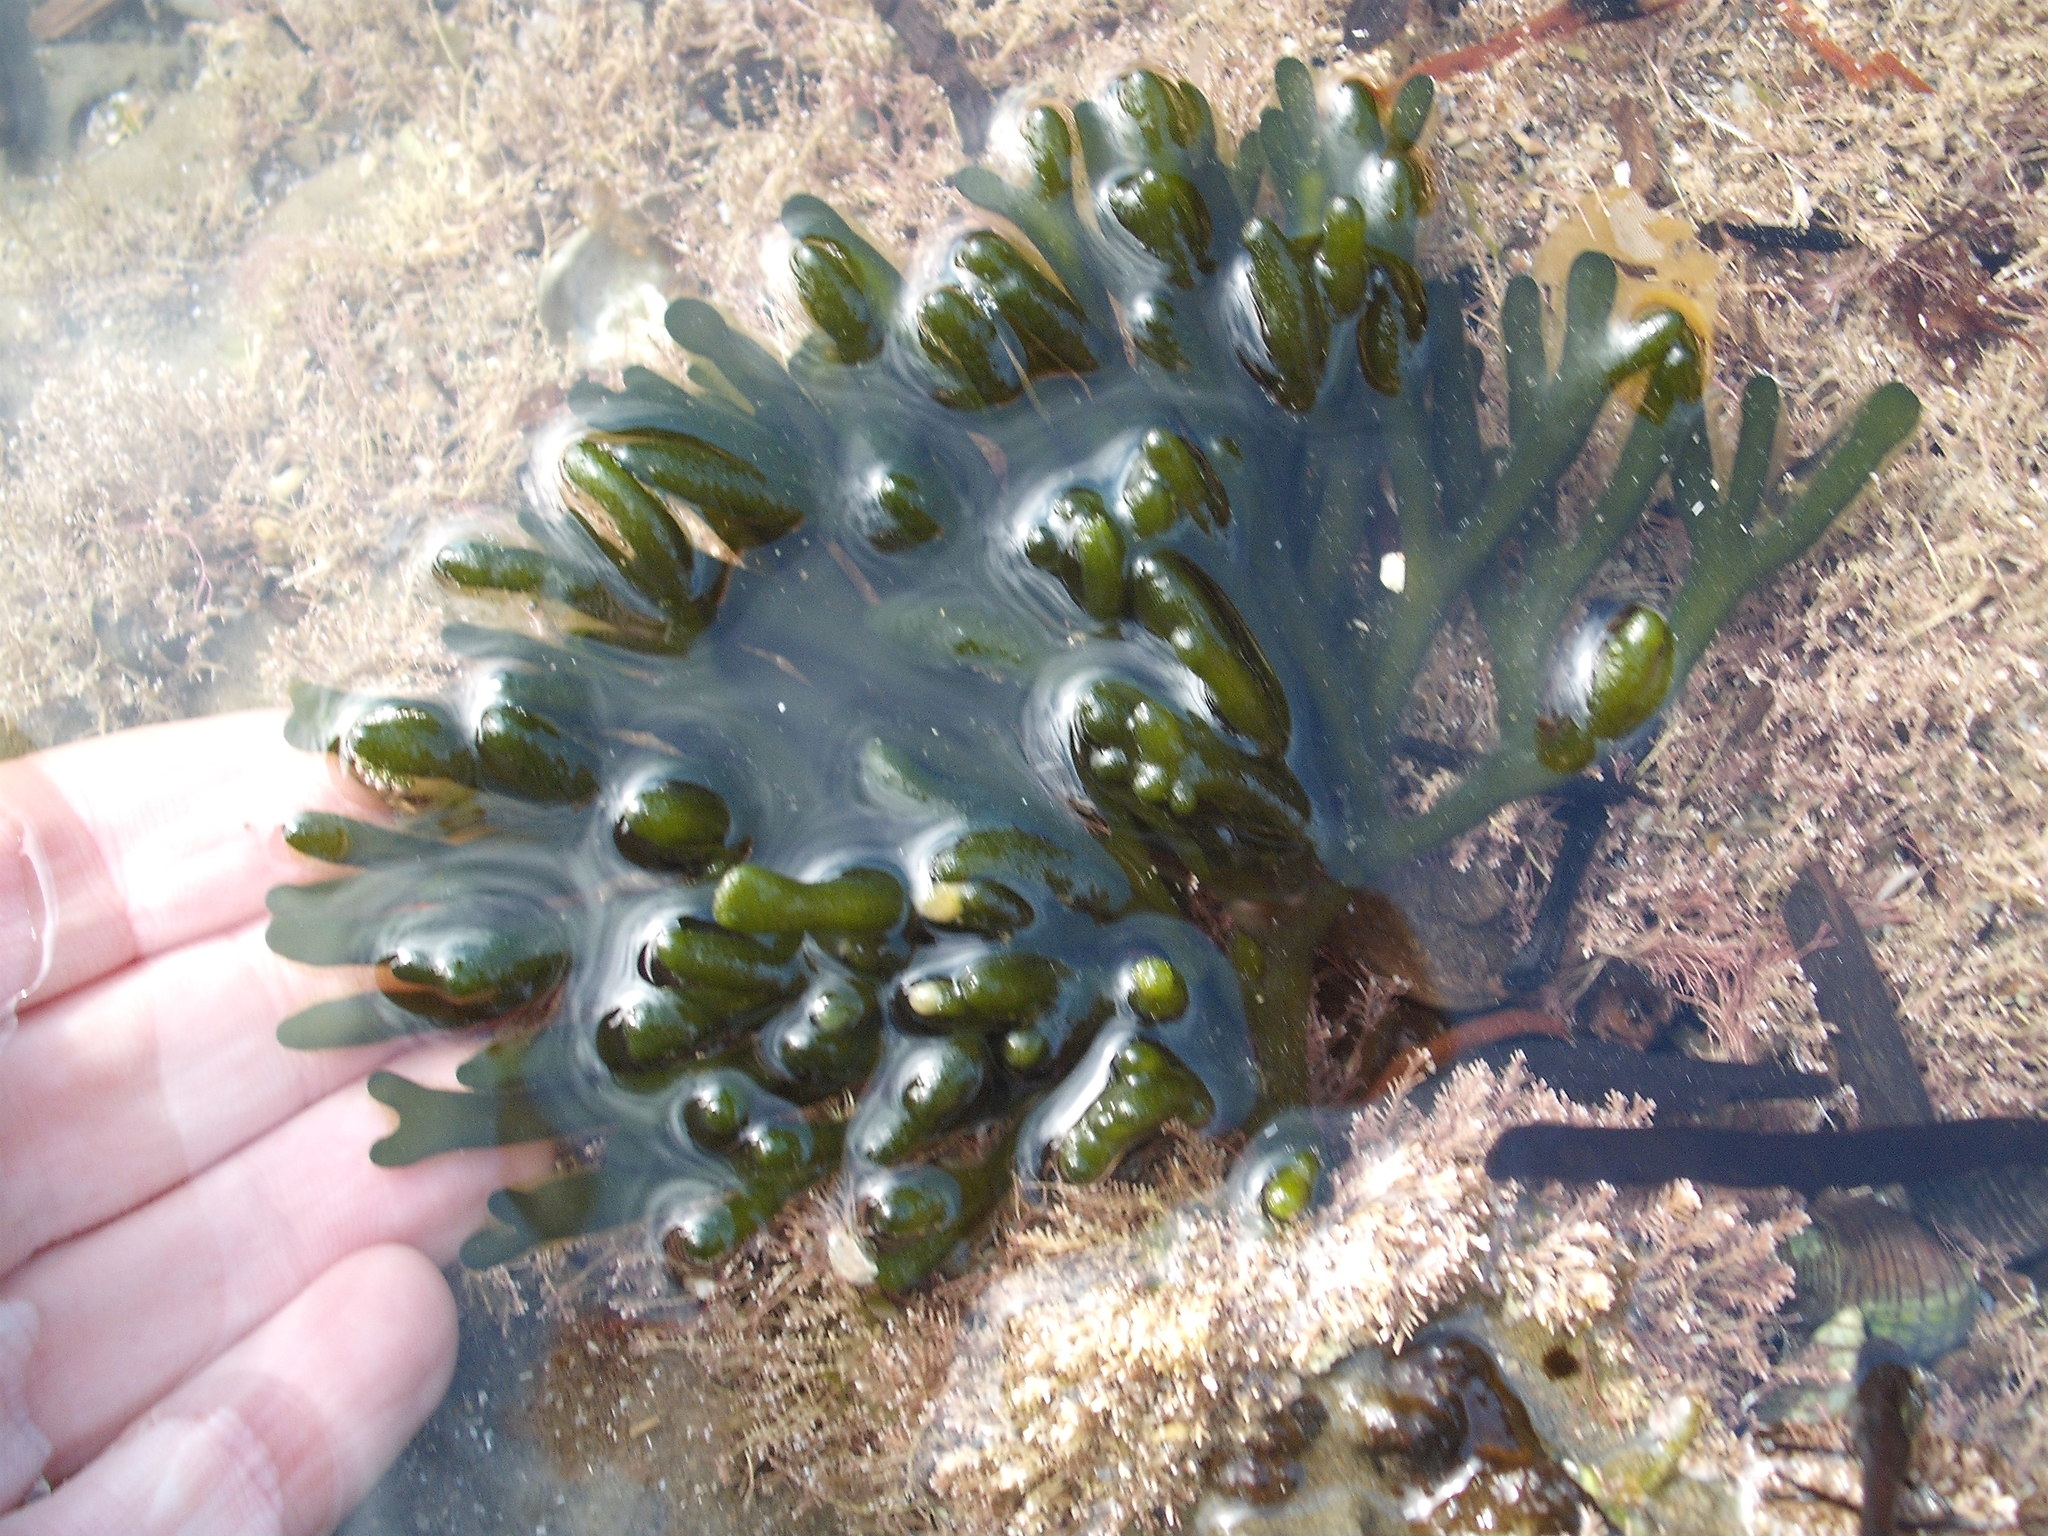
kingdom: Plantae
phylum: Chlorophyta
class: Ulvophyceae
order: Bryopsidales
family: Codiaceae
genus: Codium
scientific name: Codium fragile
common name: Dead man's fingers
